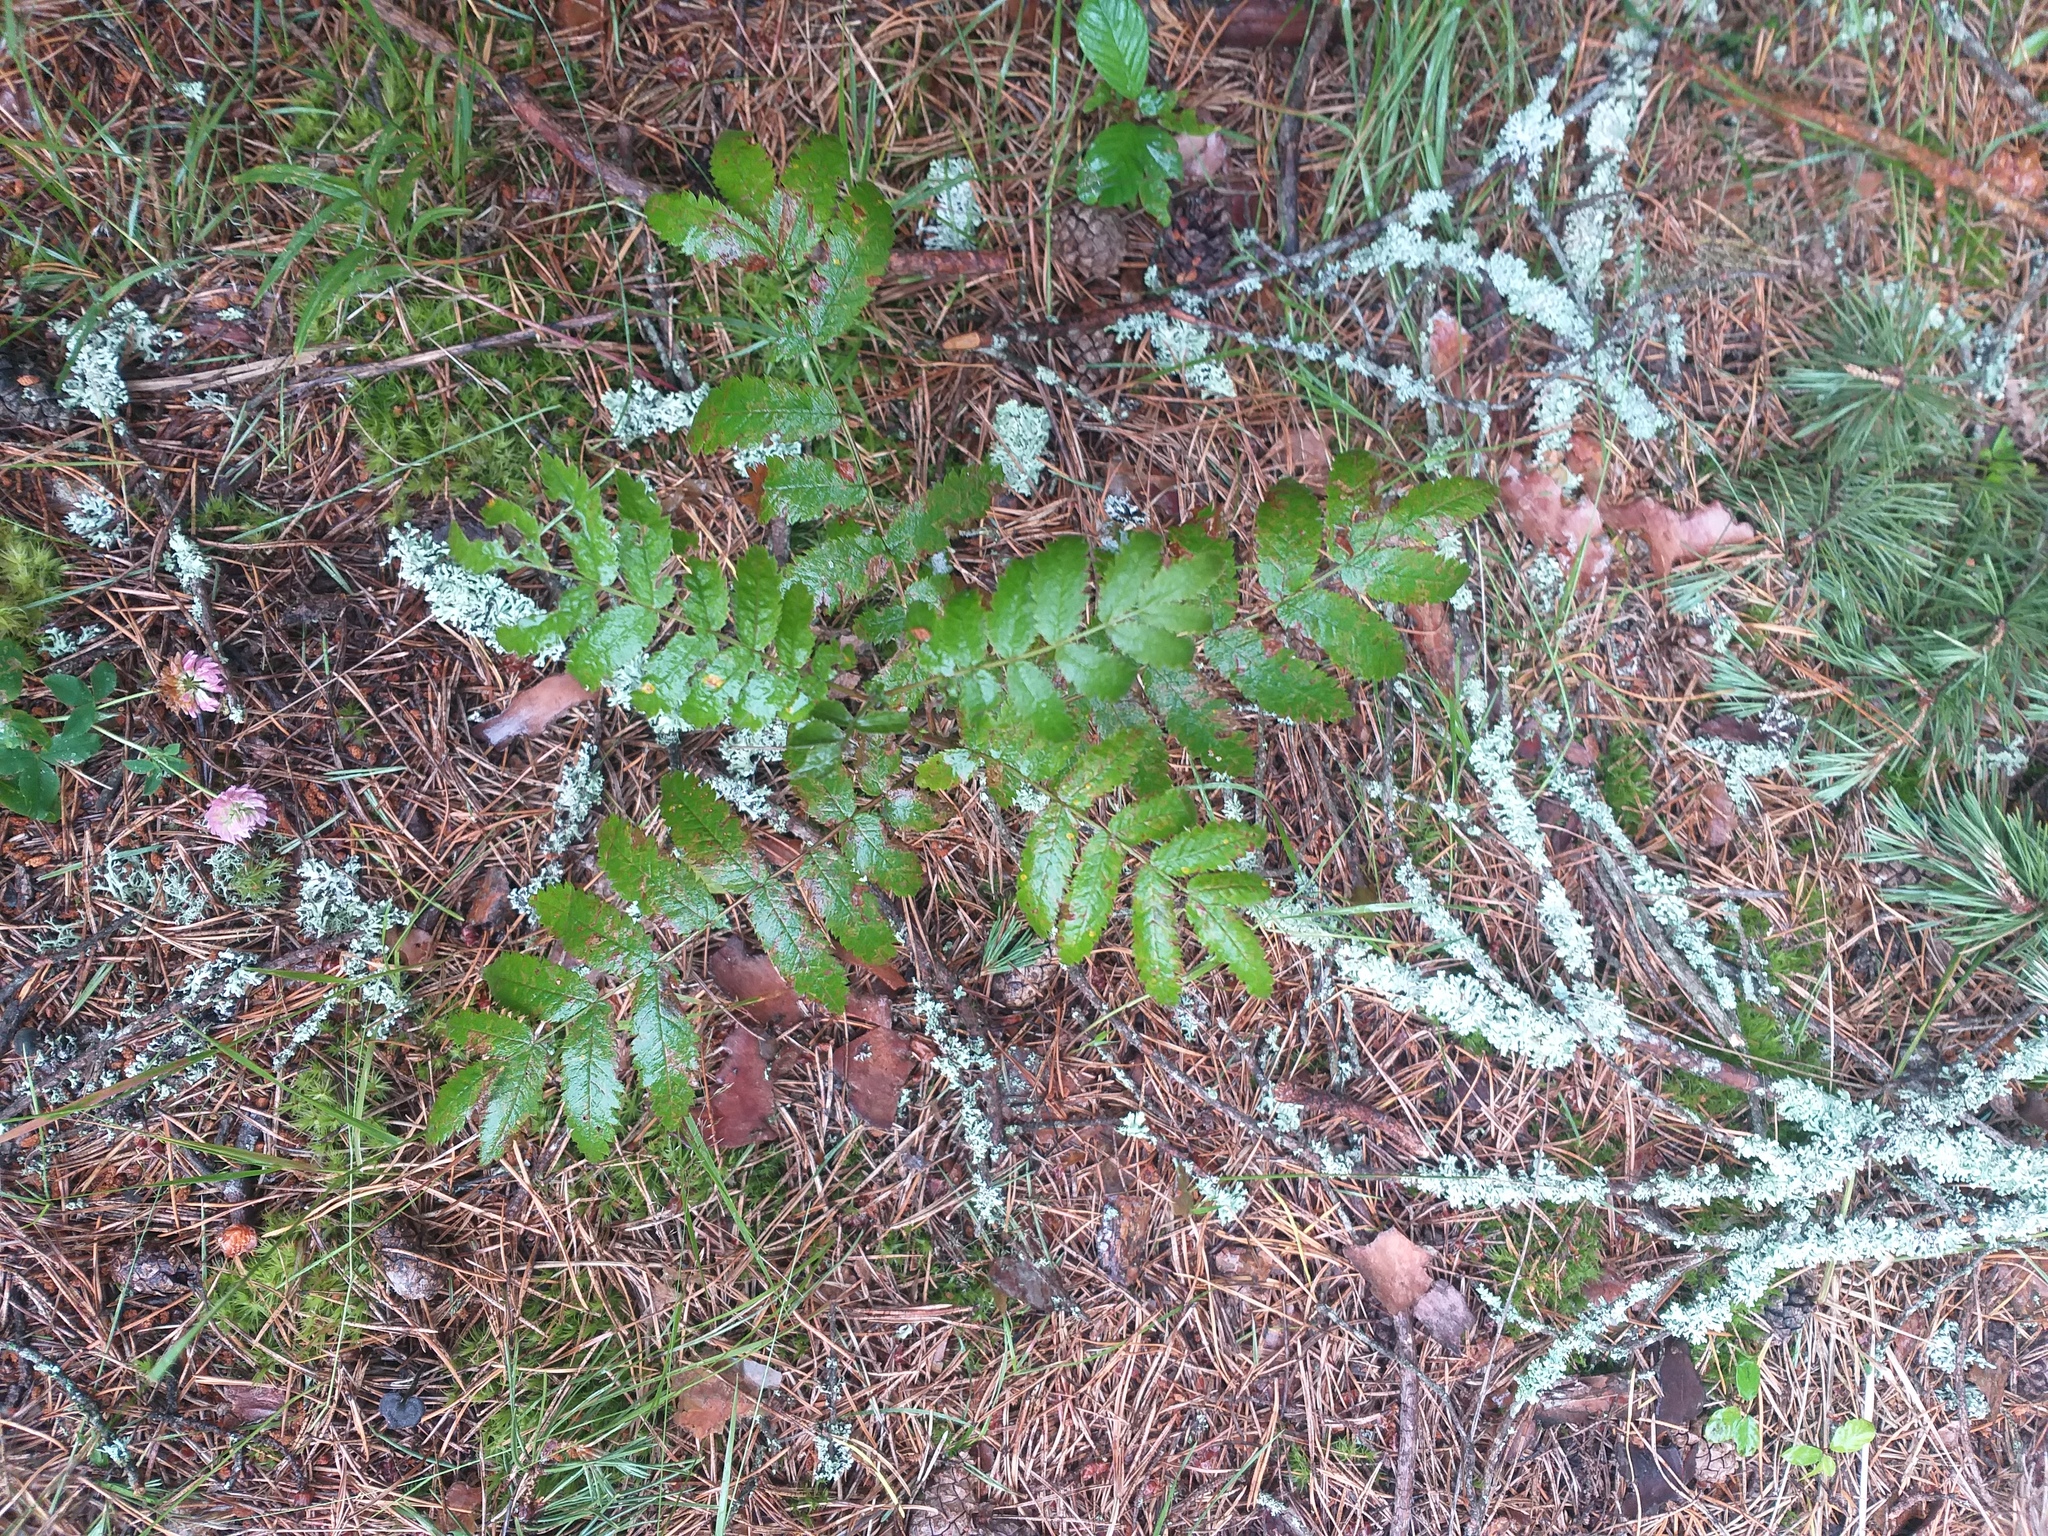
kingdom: Plantae
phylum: Tracheophyta
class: Magnoliopsida
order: Rosales
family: Rosaceae
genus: Sorbus
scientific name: Sorbus aucuparia
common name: Rowan
